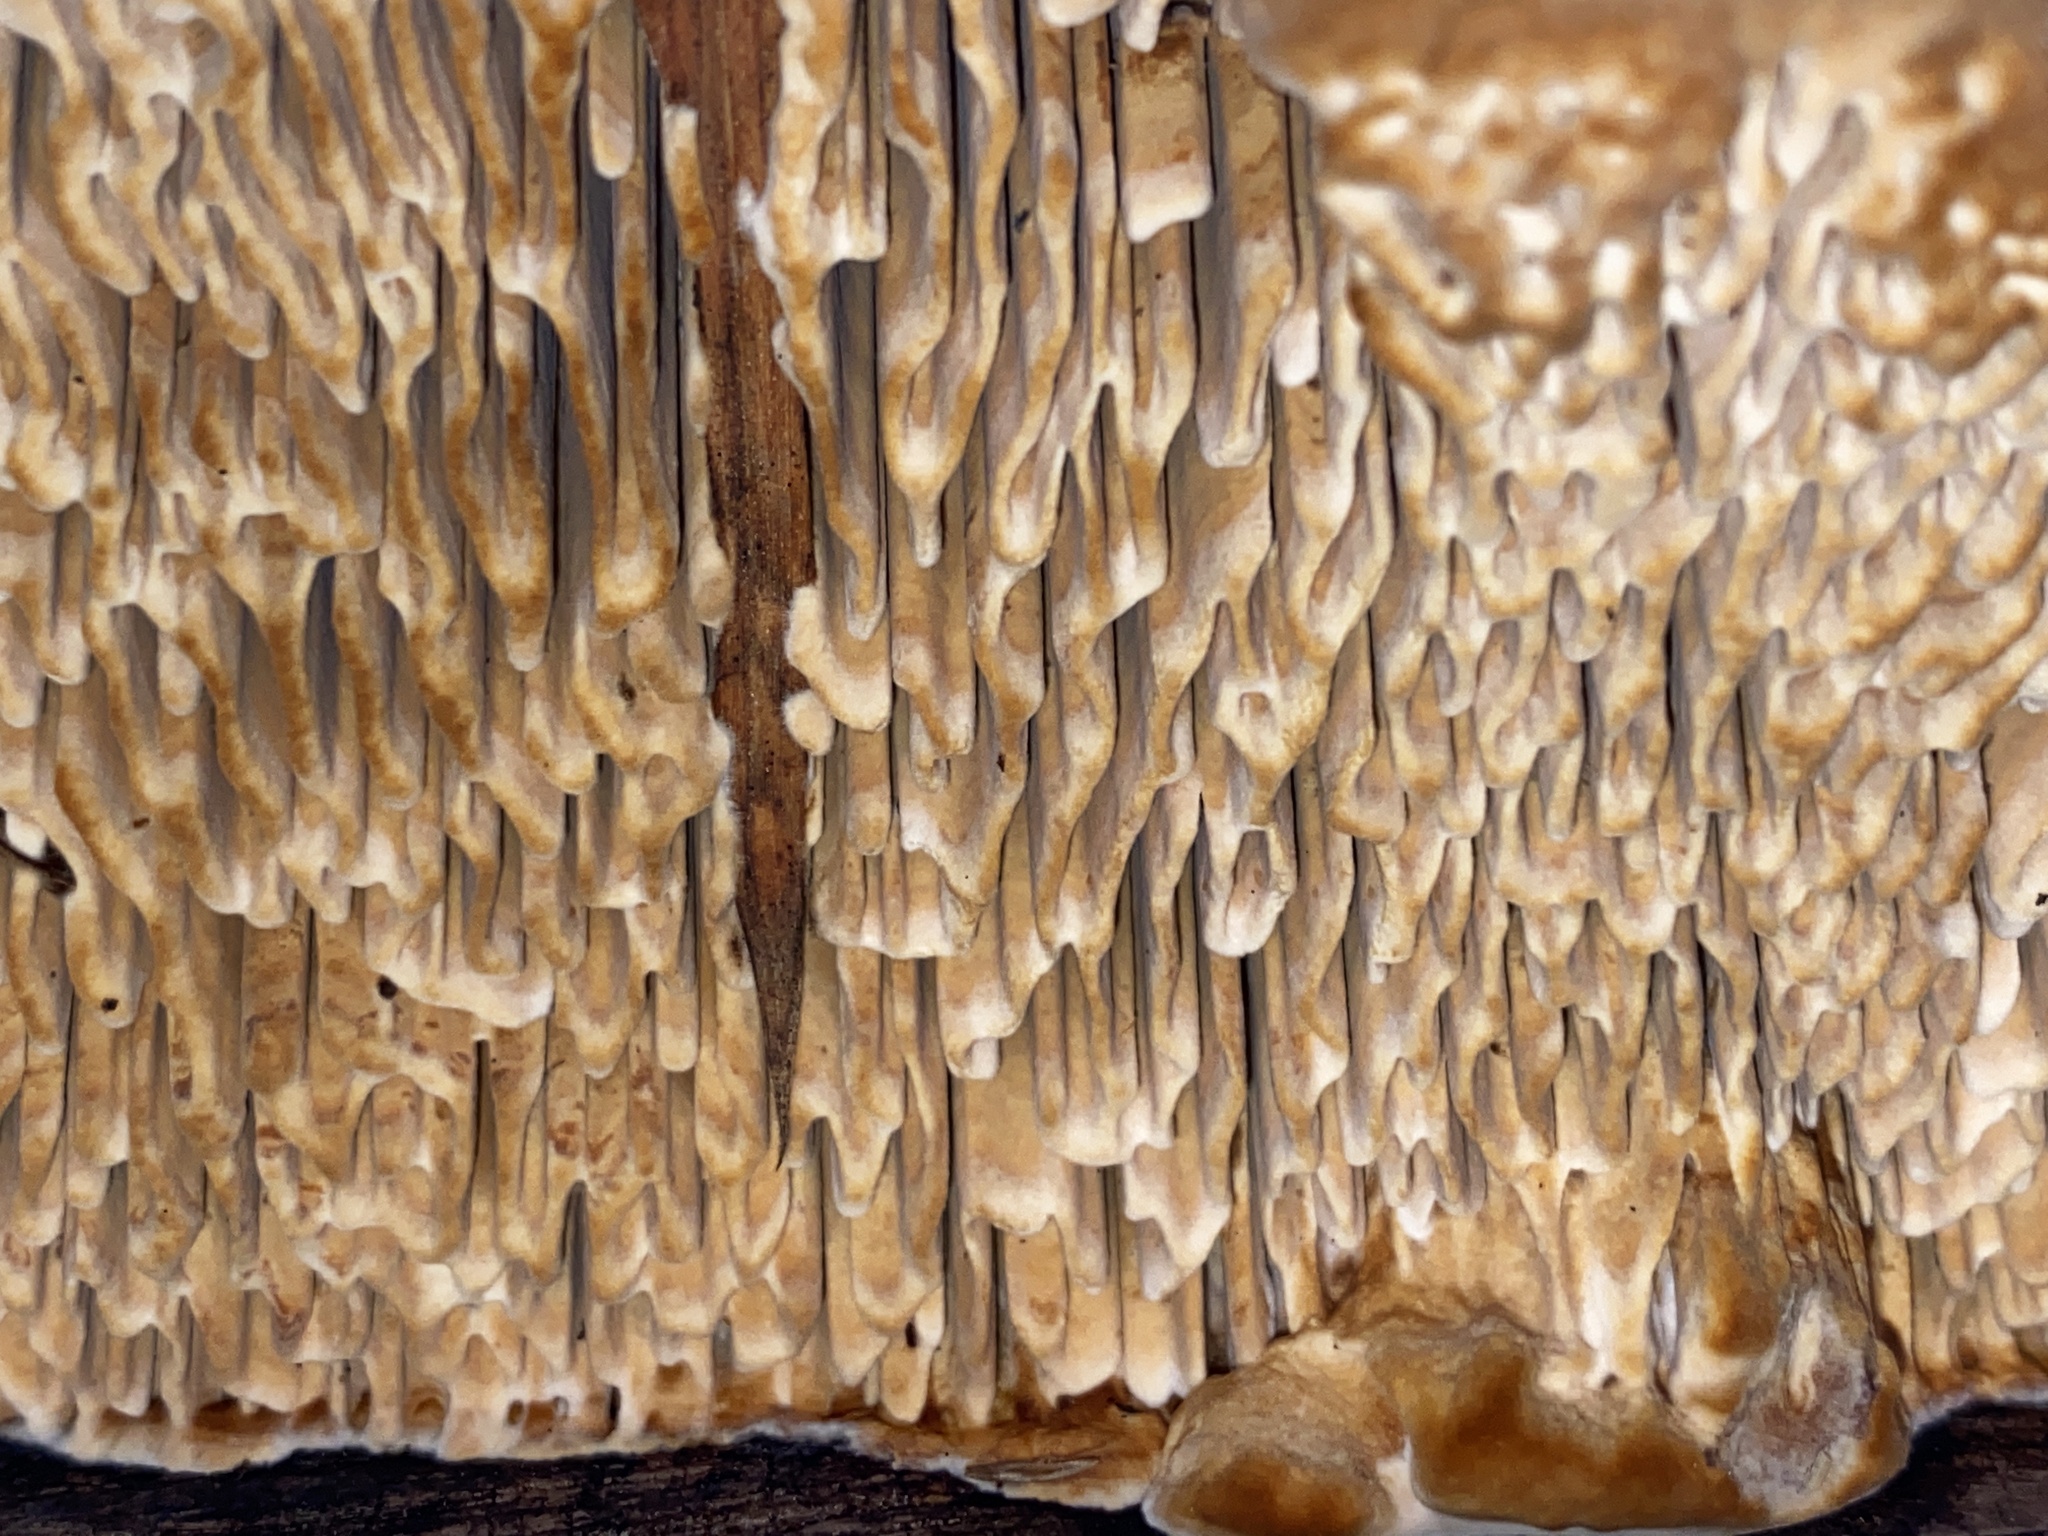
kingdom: Fungi
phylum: Basidiomycota
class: Agaricomycetes
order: Polyporales
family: Fomitopsidaceae
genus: Fomitopsis
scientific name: Fomitopsis
